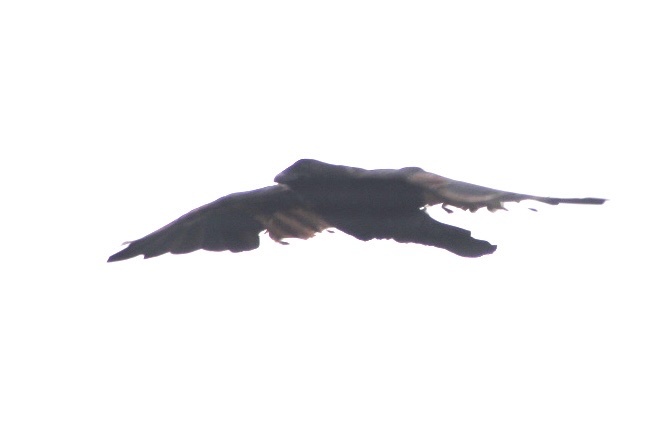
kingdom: Animalia
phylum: Chordata
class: Aves
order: Passeriformes
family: Corvidae
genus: Corvus
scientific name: Corvus brachyrhynchos
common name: American crow
